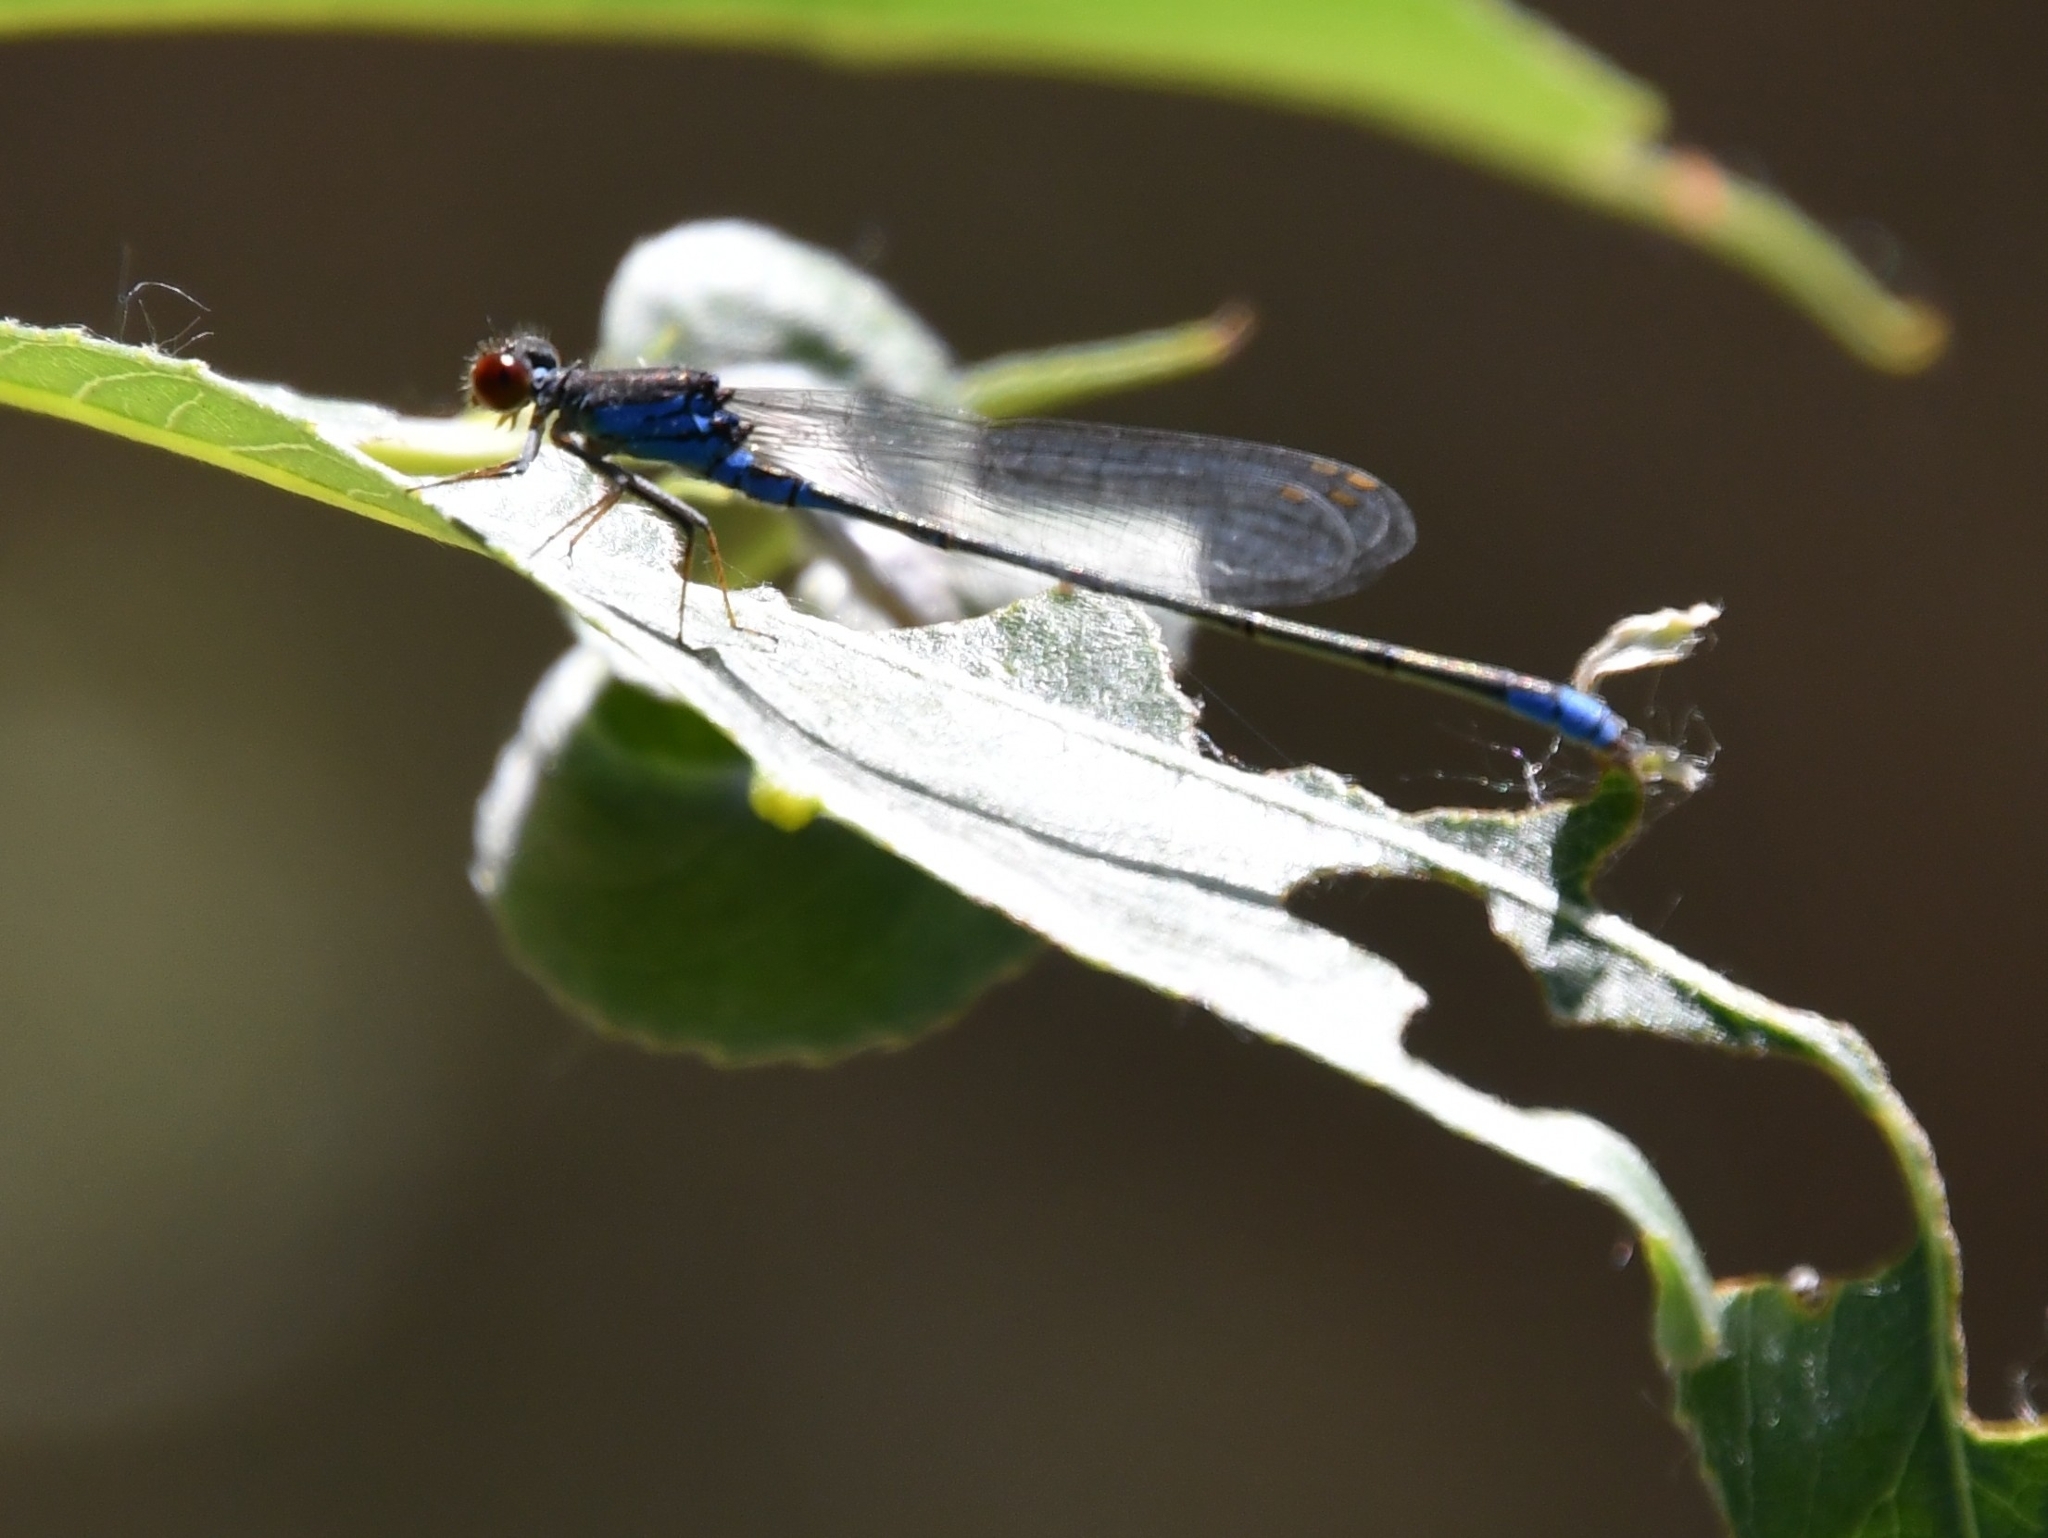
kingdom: Animalia
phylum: Arthropoda
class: Insecta
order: Odonata
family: Coenagrionidae
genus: Erythromma
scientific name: Erythromma viridulum
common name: Small red-eyed damselfly
